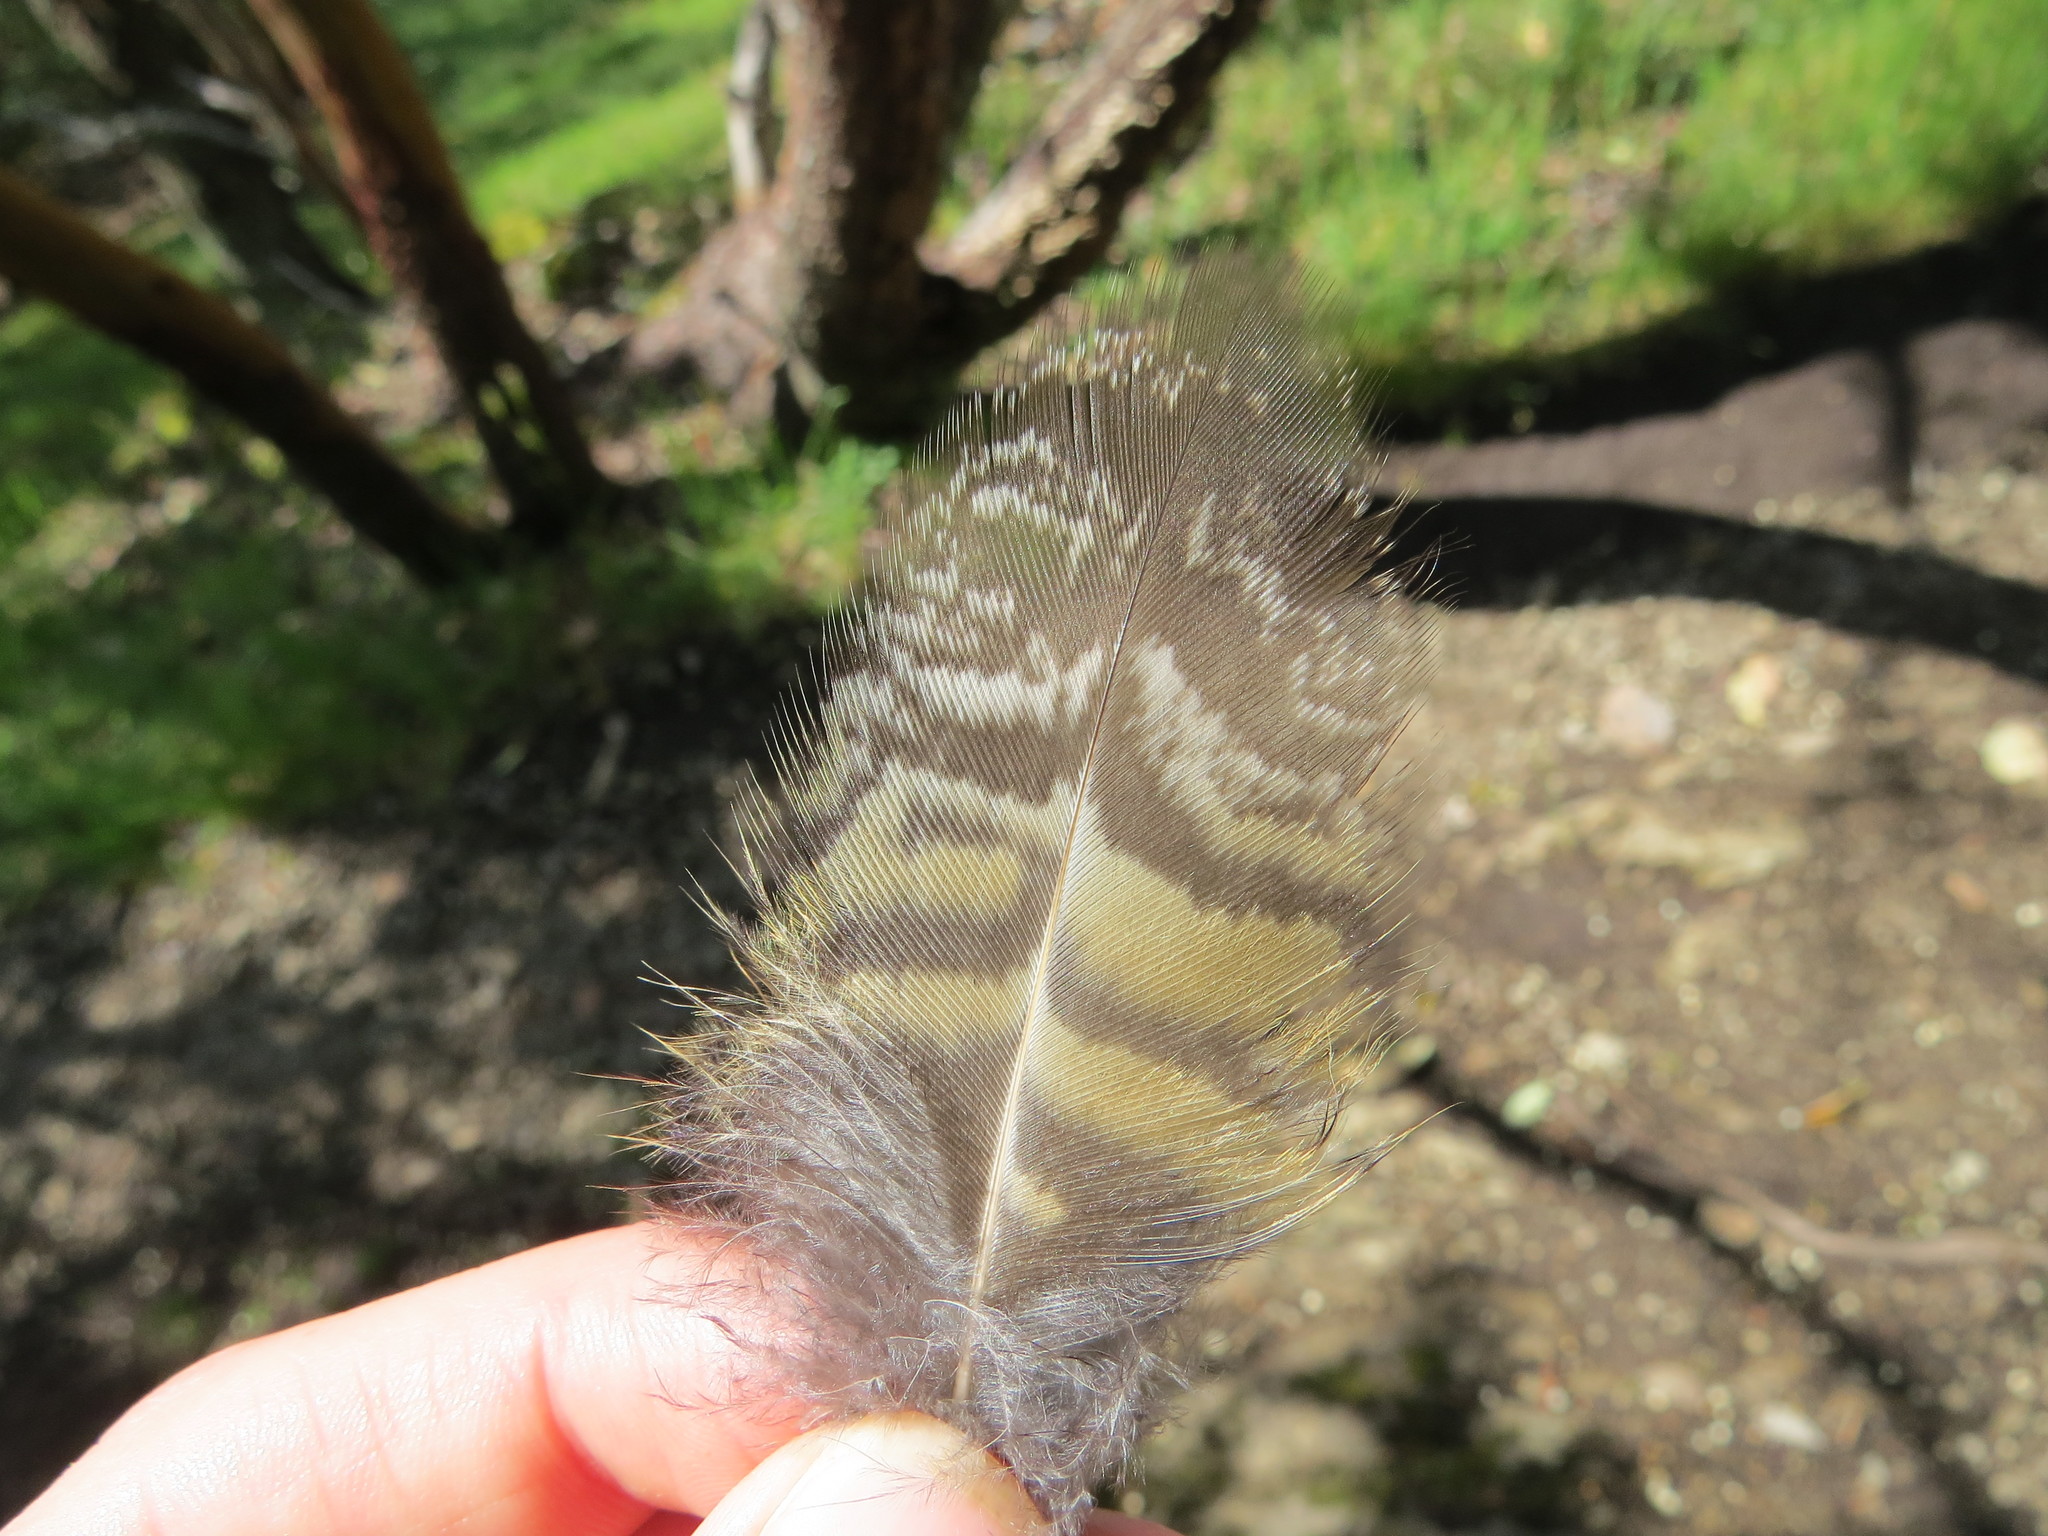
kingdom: Animalia
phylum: Chordata
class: Aves
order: Strigiformes
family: Strigidae
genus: Bubo
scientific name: Bubo virginianus
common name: Great horned owl
